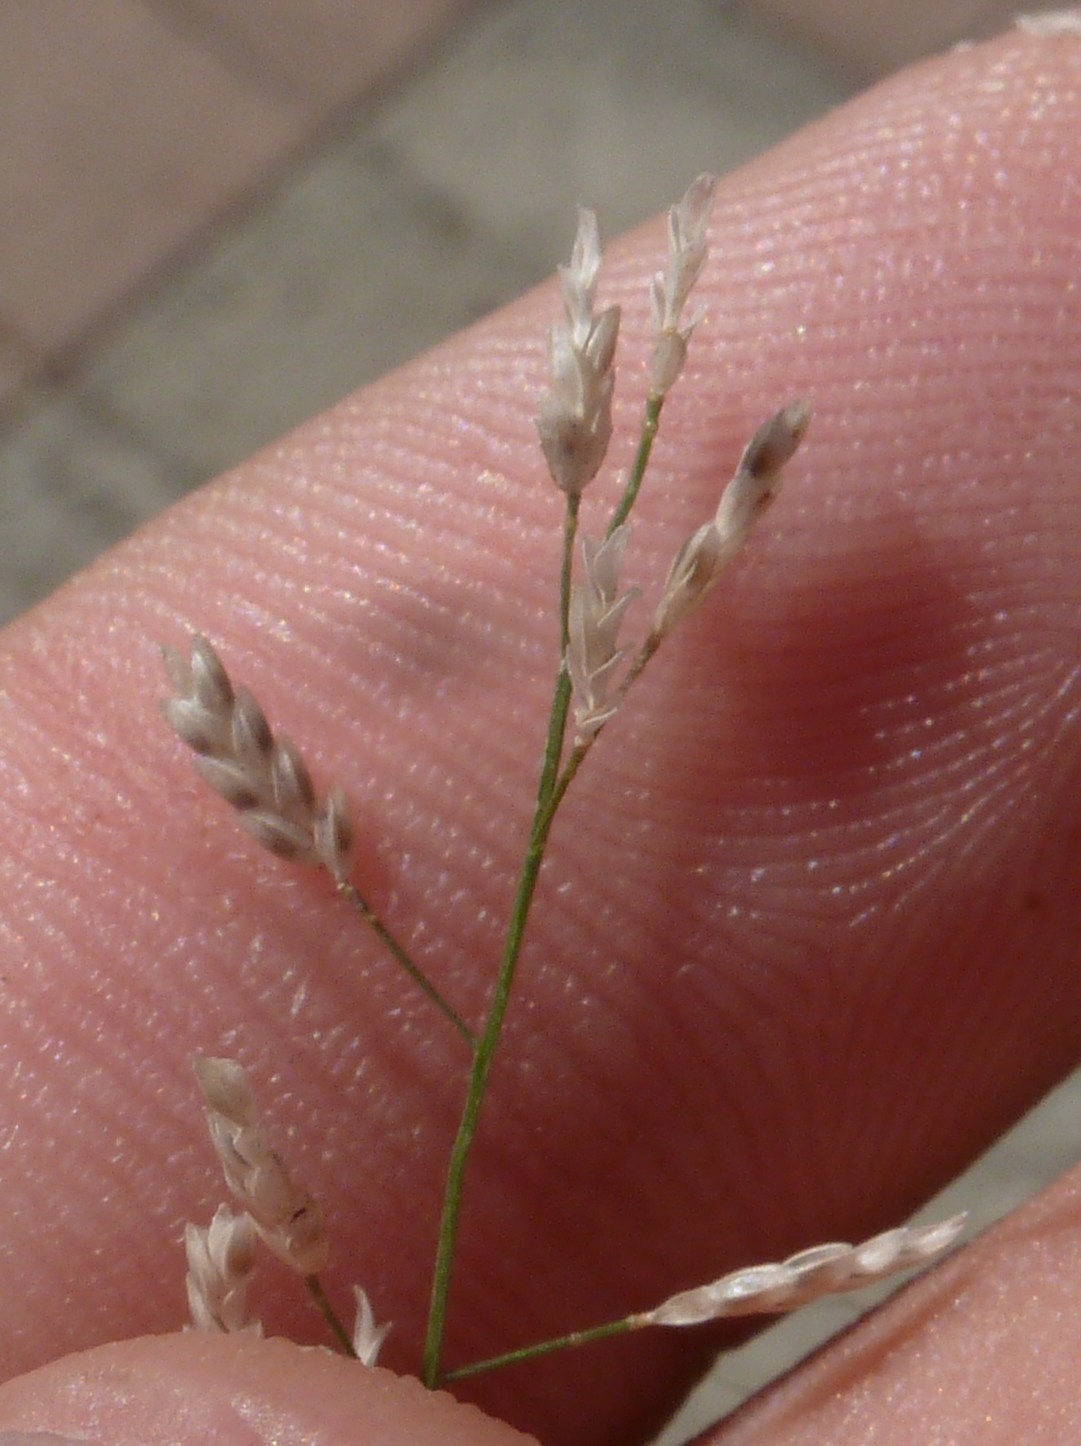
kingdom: Plantae
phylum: Tracheophyta
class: Liliopsida
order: Poales
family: Poaceae
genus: Eragrostis
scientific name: Eragrostis minor
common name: Small love-grass
